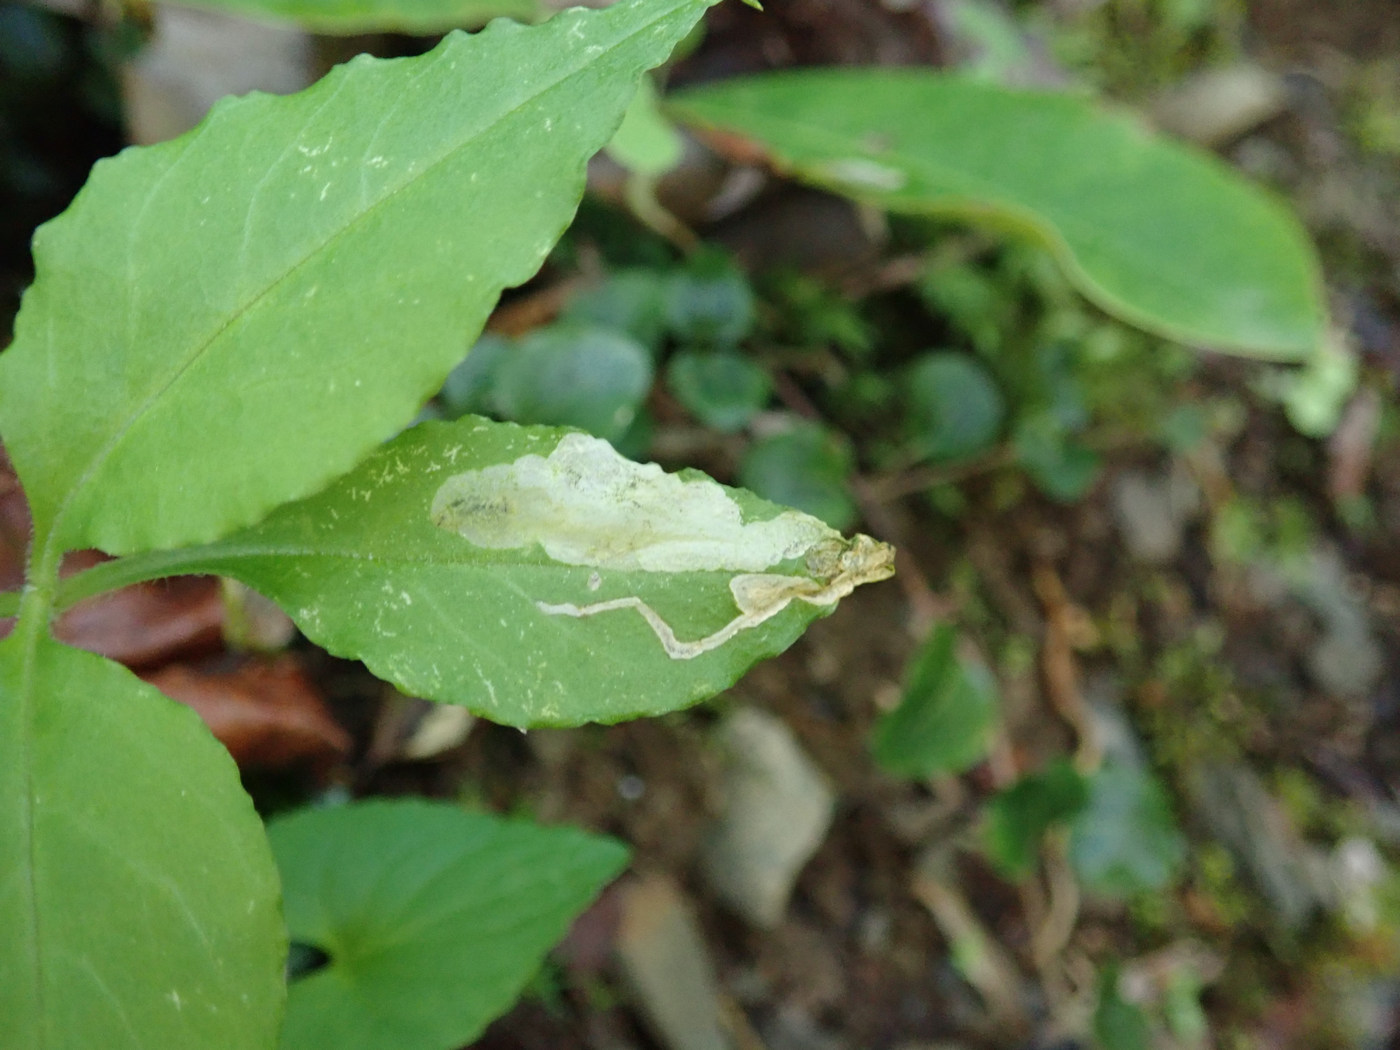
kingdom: Animalia
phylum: Arthropoda
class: Insecta
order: Diptera
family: Anthomyiidae
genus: Pegomya
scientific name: Pegomya flavifrons
